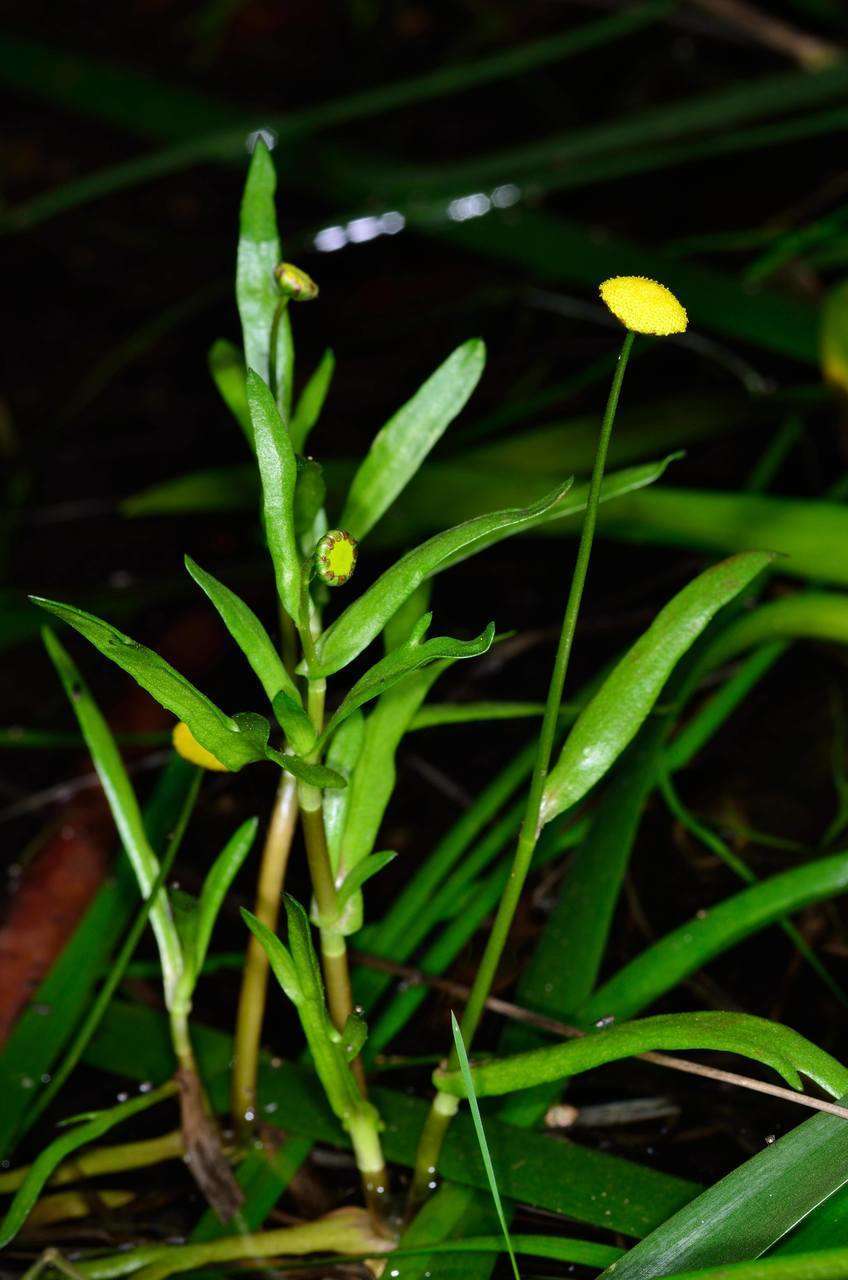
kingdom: Plantae
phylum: Tracheophyta
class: Magnoliopsida
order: Asterales
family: Asteraceae
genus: Cotula
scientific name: Cotula coronopifolia
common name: Buttonweed
